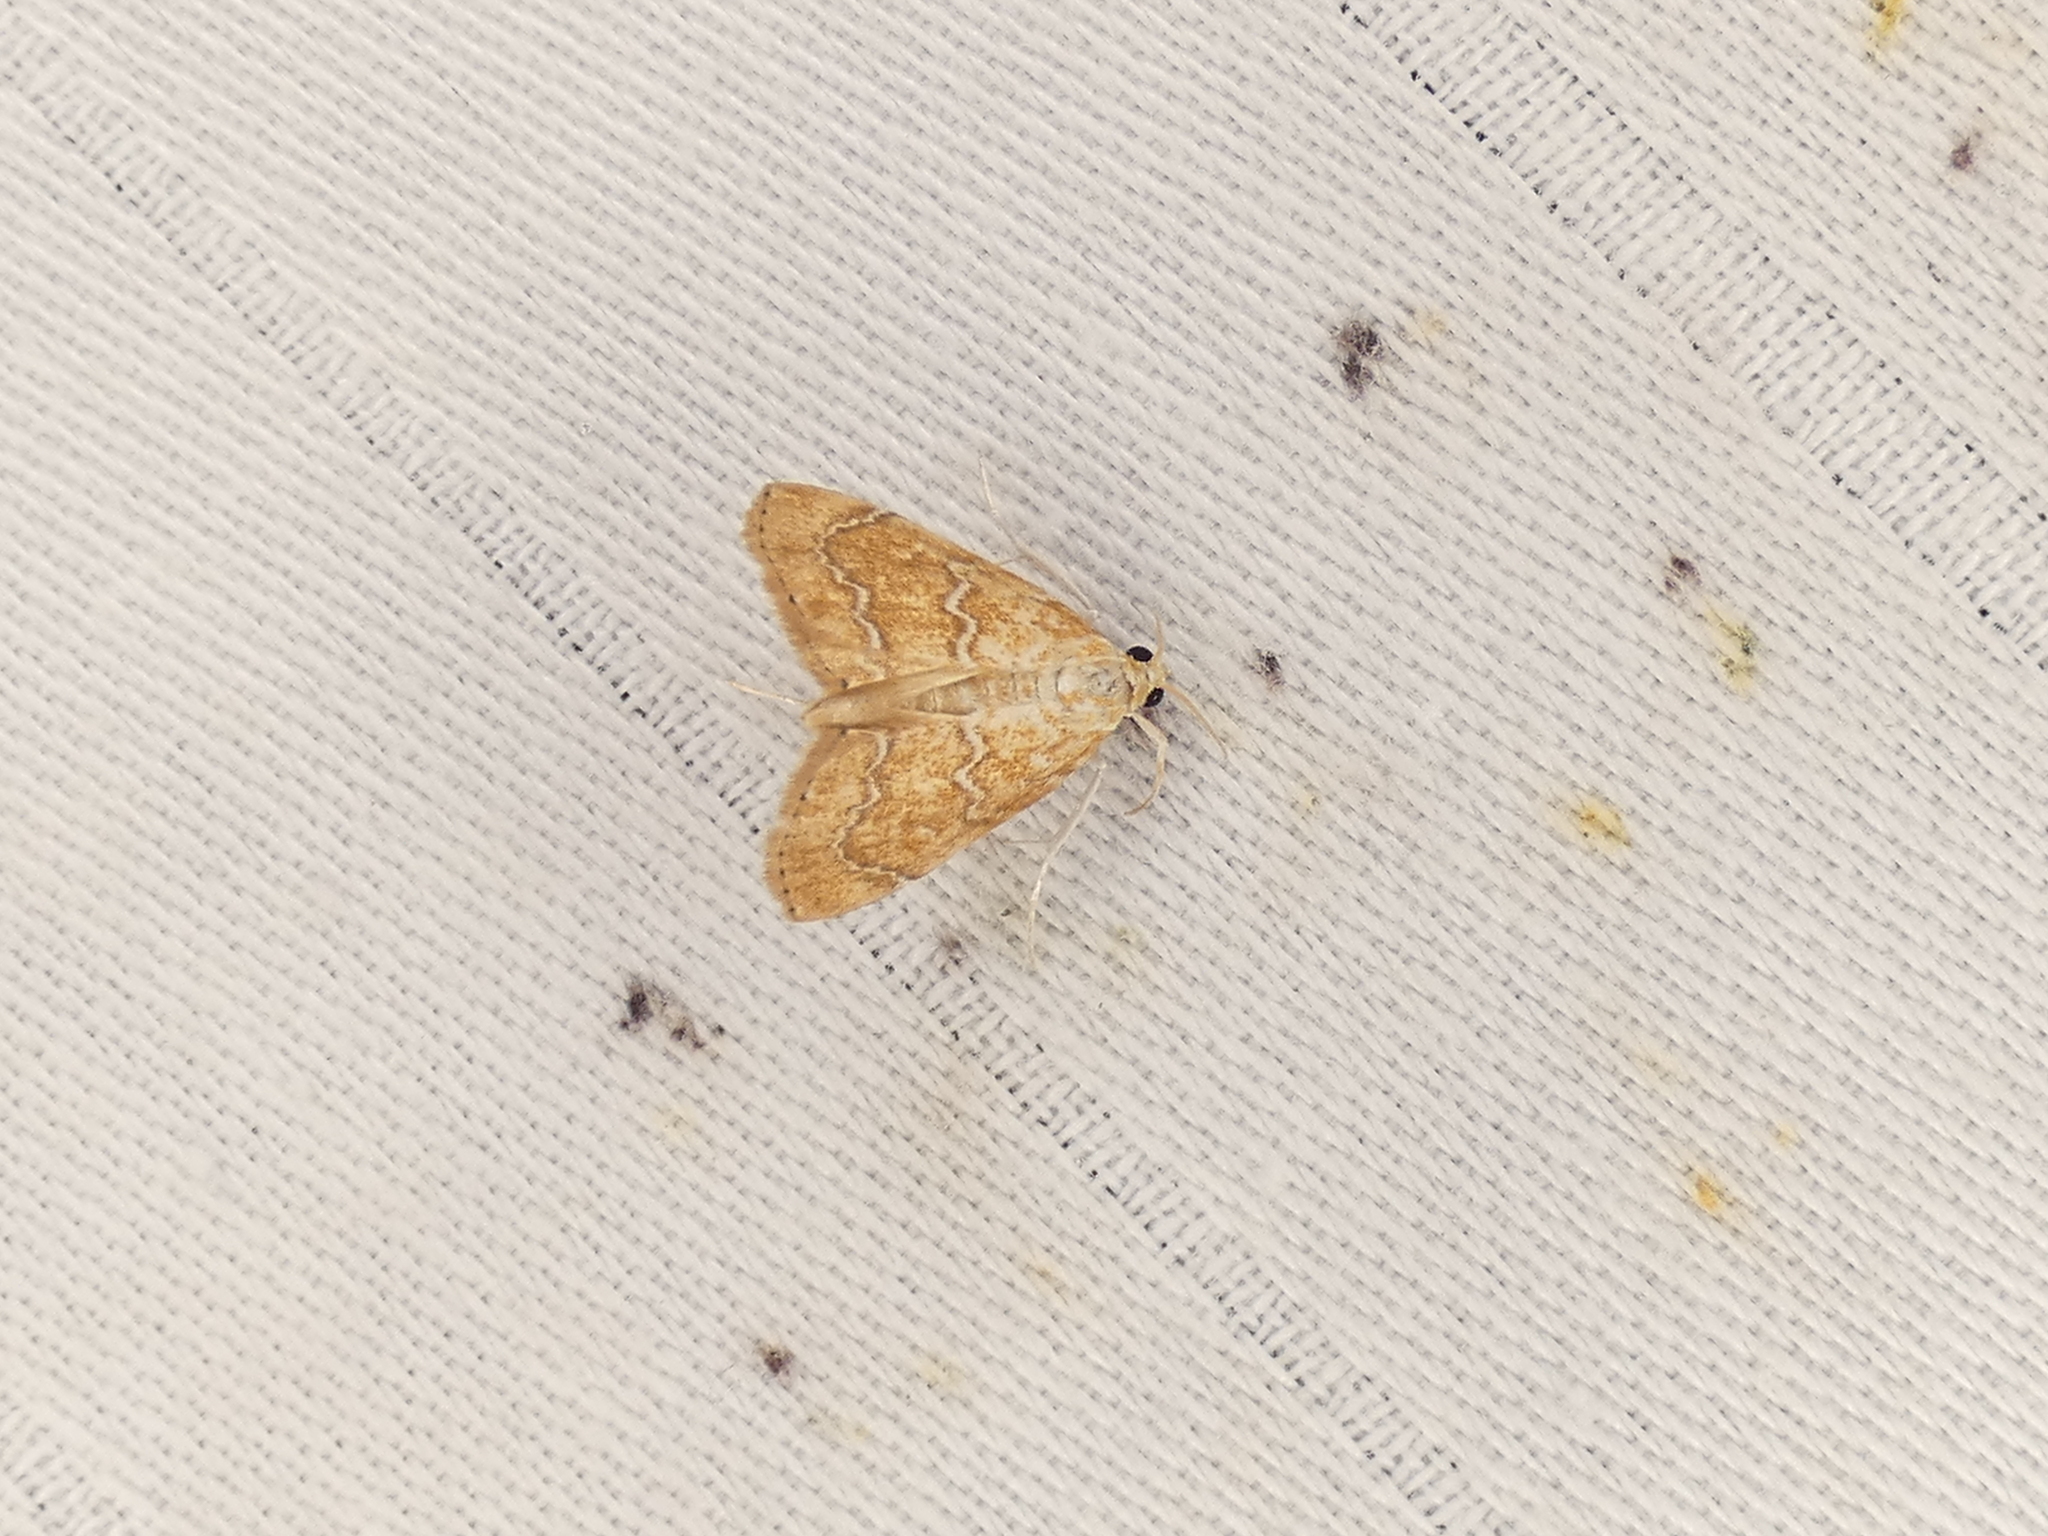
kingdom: Animalia
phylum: Arthropoda
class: Insecta
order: Lepidoptera
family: Crambidae
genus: Glaphyria
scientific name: Glaphyria sesquistrialis
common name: White-roped glaphyria
